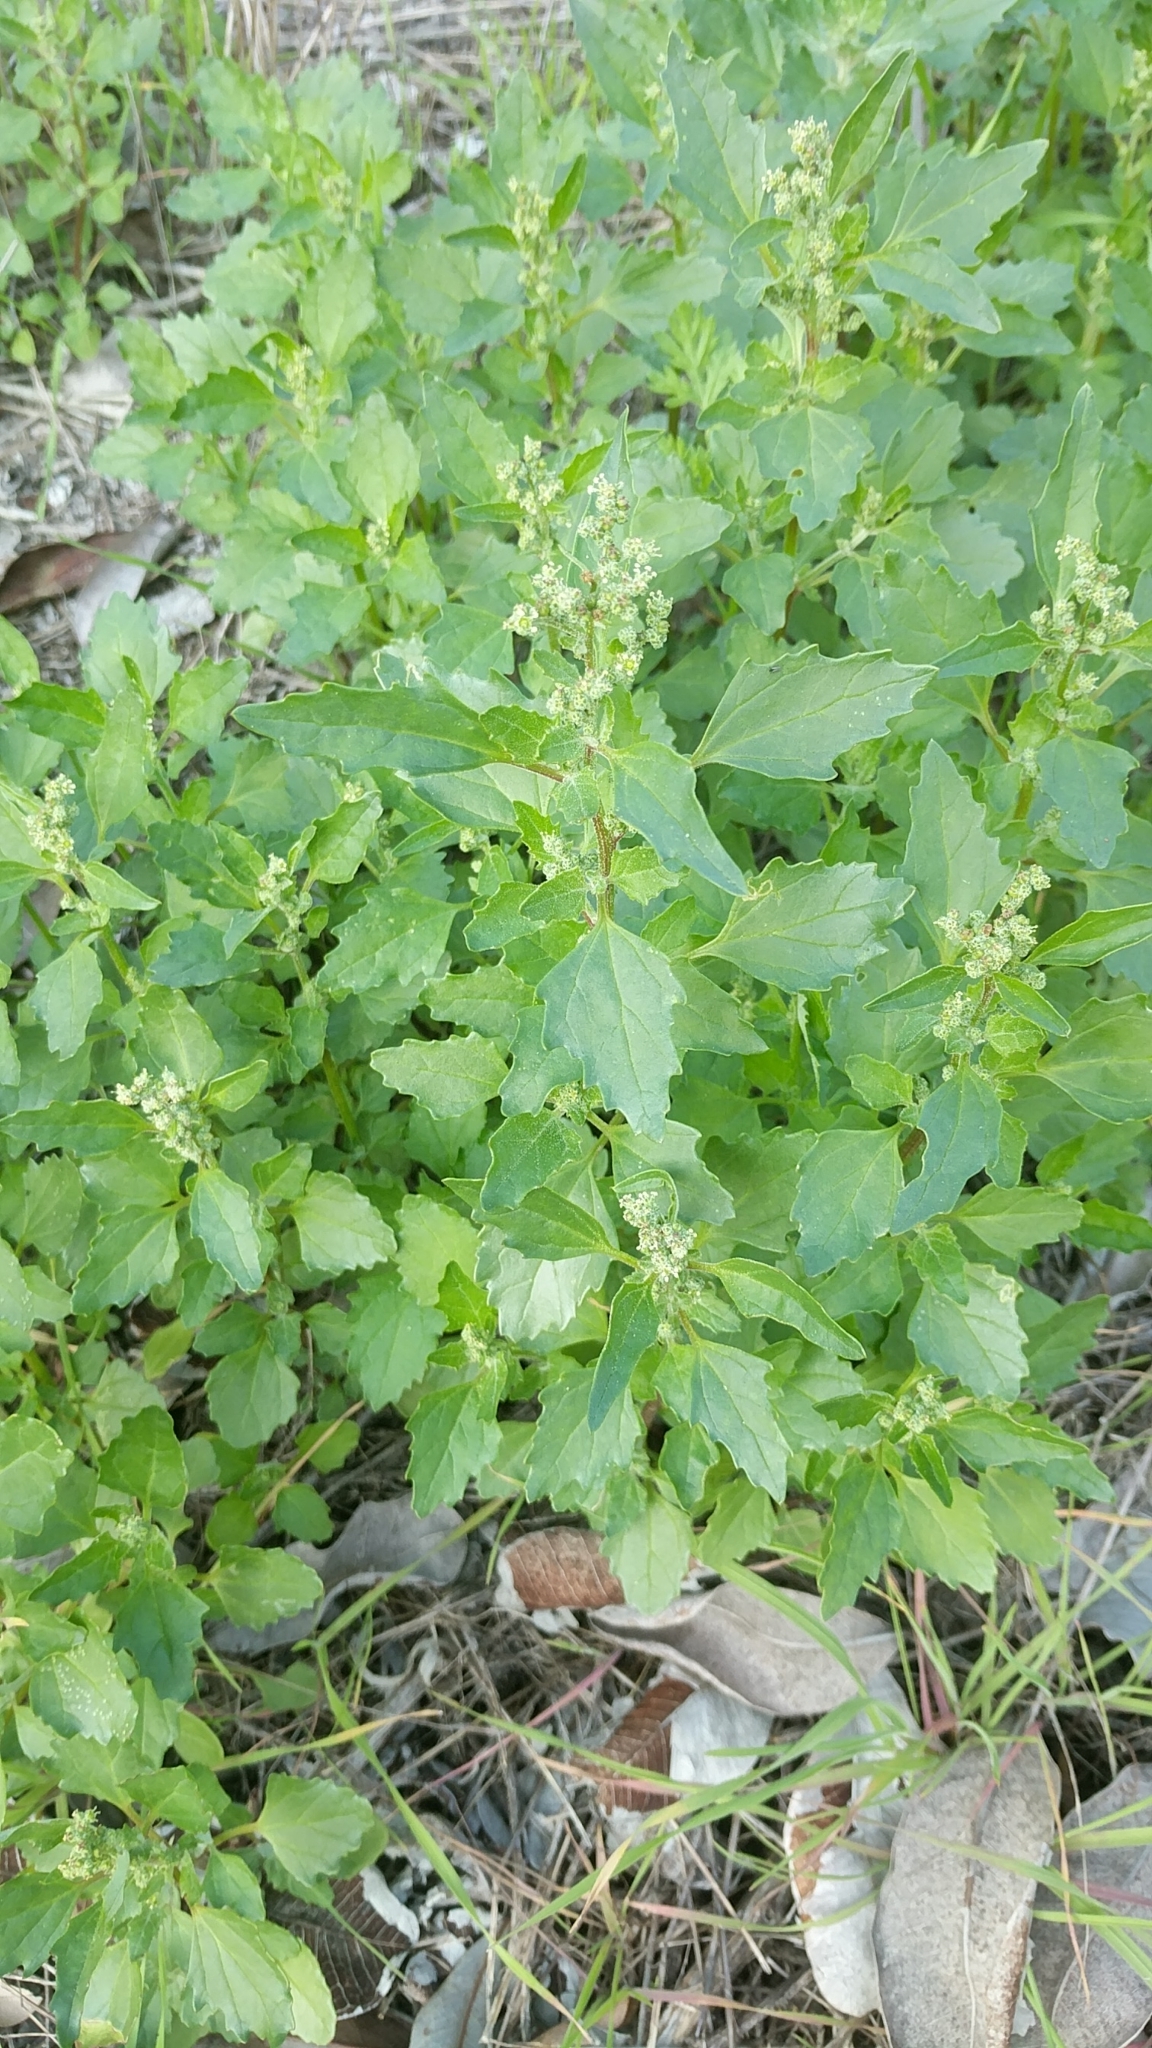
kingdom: Plantae
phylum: Tracheophyta
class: Magnoliopsida
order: Caryophyllales
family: Amaranthaceae
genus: Chenopodiastrum
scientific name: Chenopodiastrum murale
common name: Sowbane
